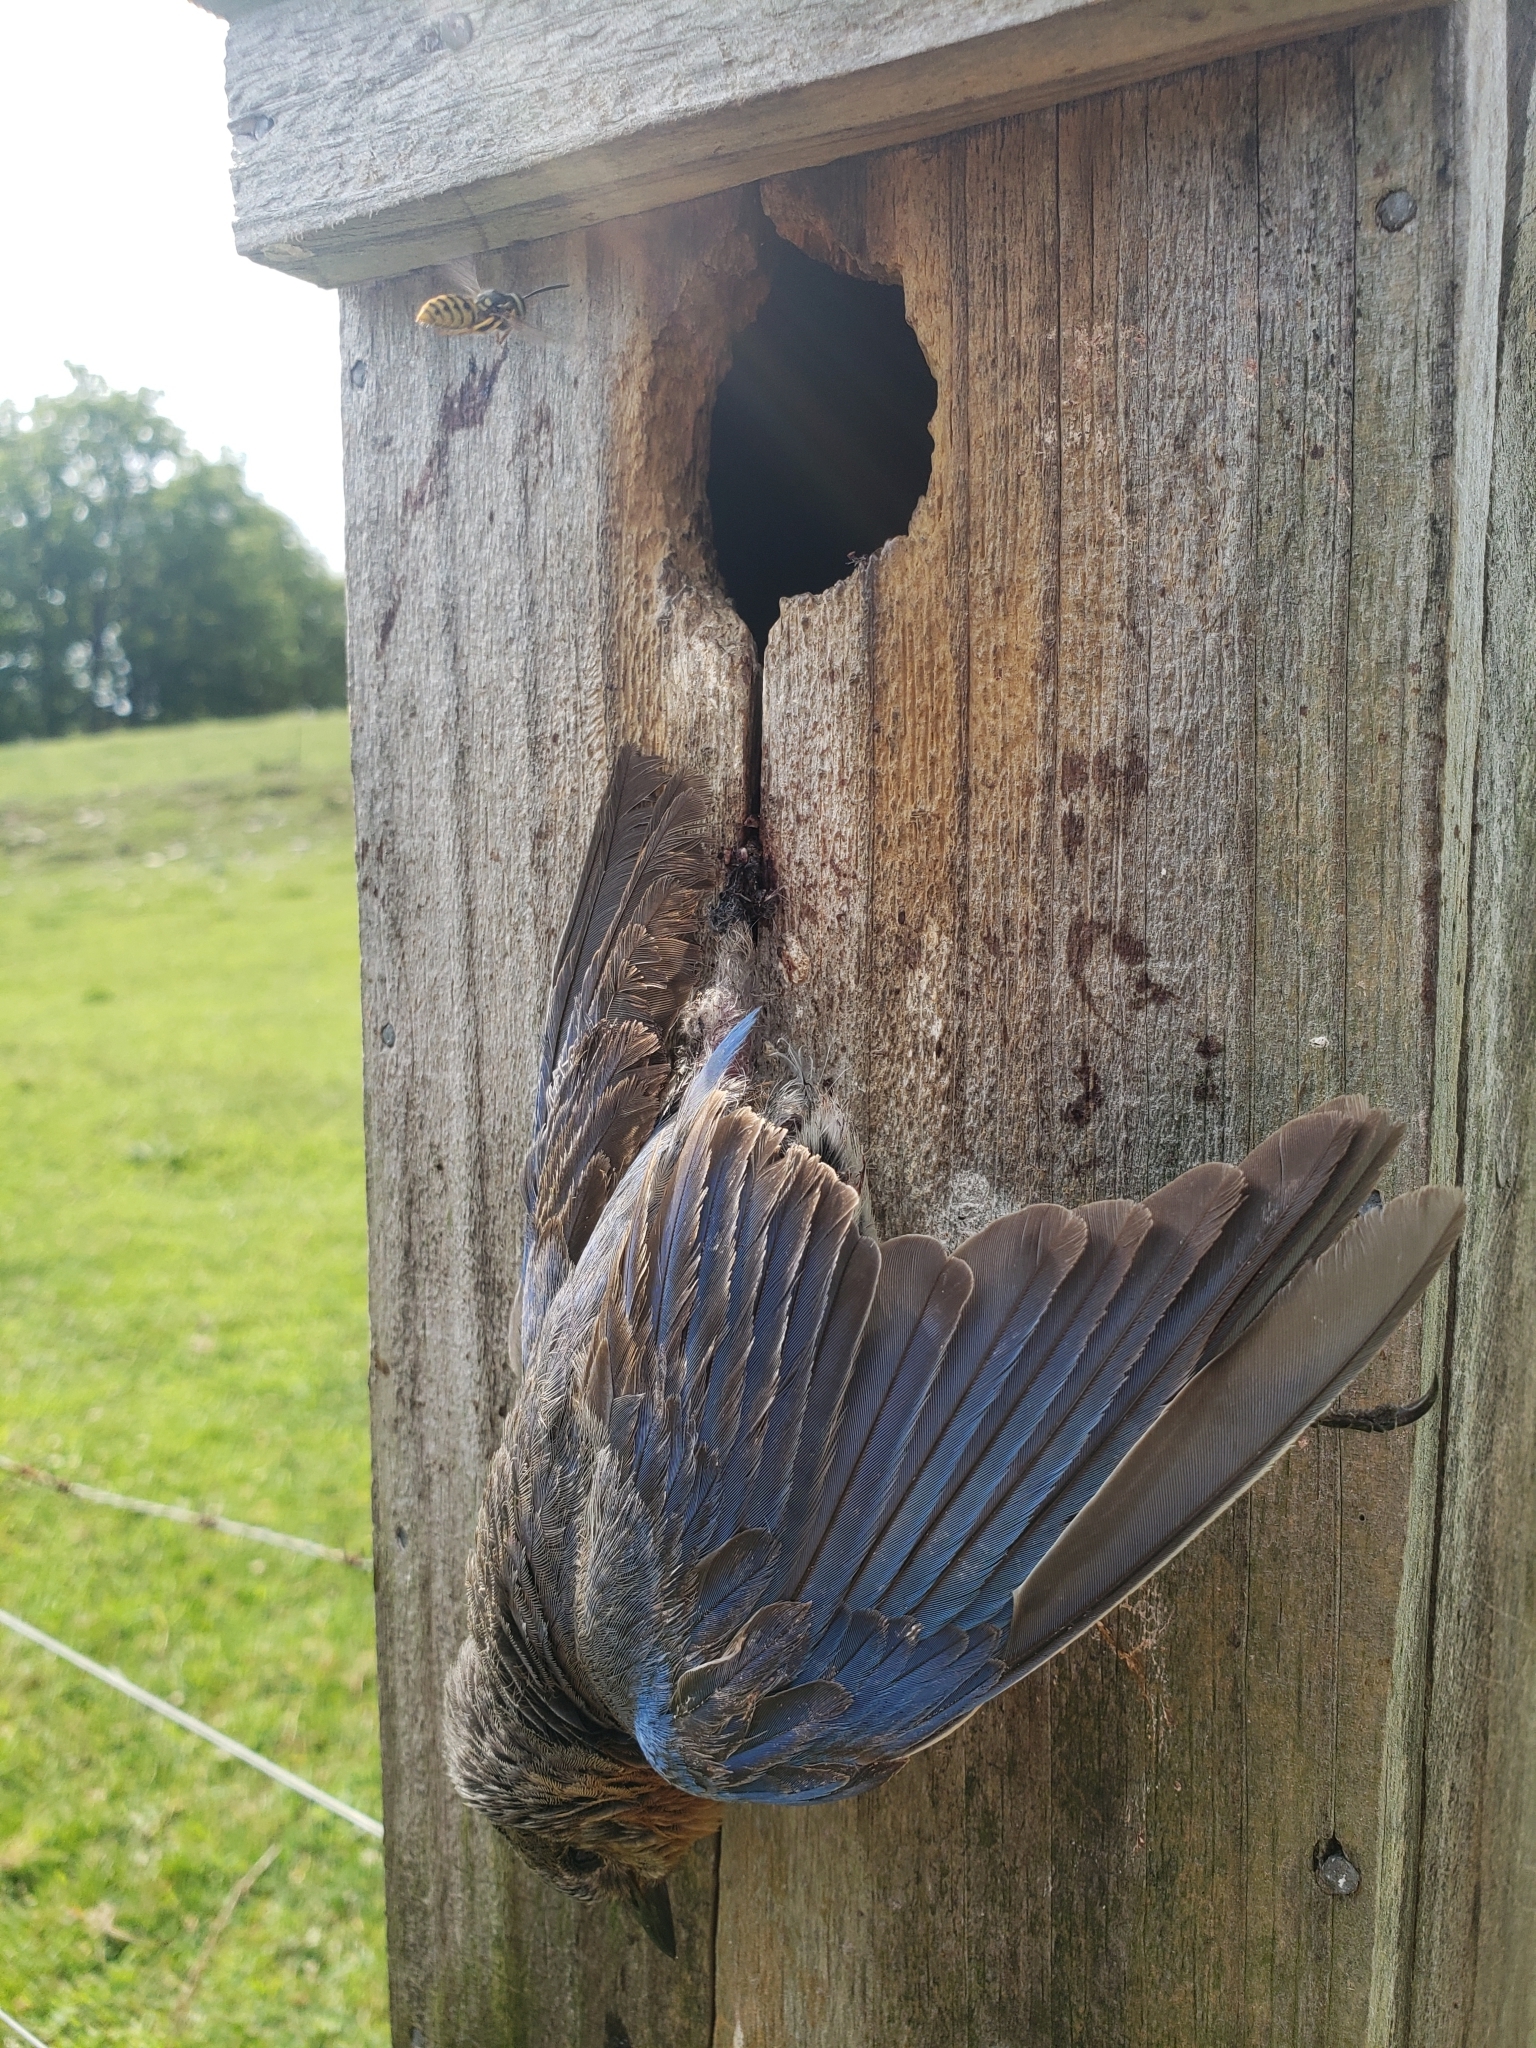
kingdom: Animalia
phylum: Chordata
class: Aves
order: Passeriformes
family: Turdidae
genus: Sialia
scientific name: Sialia sialis
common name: Eastern bluebird
